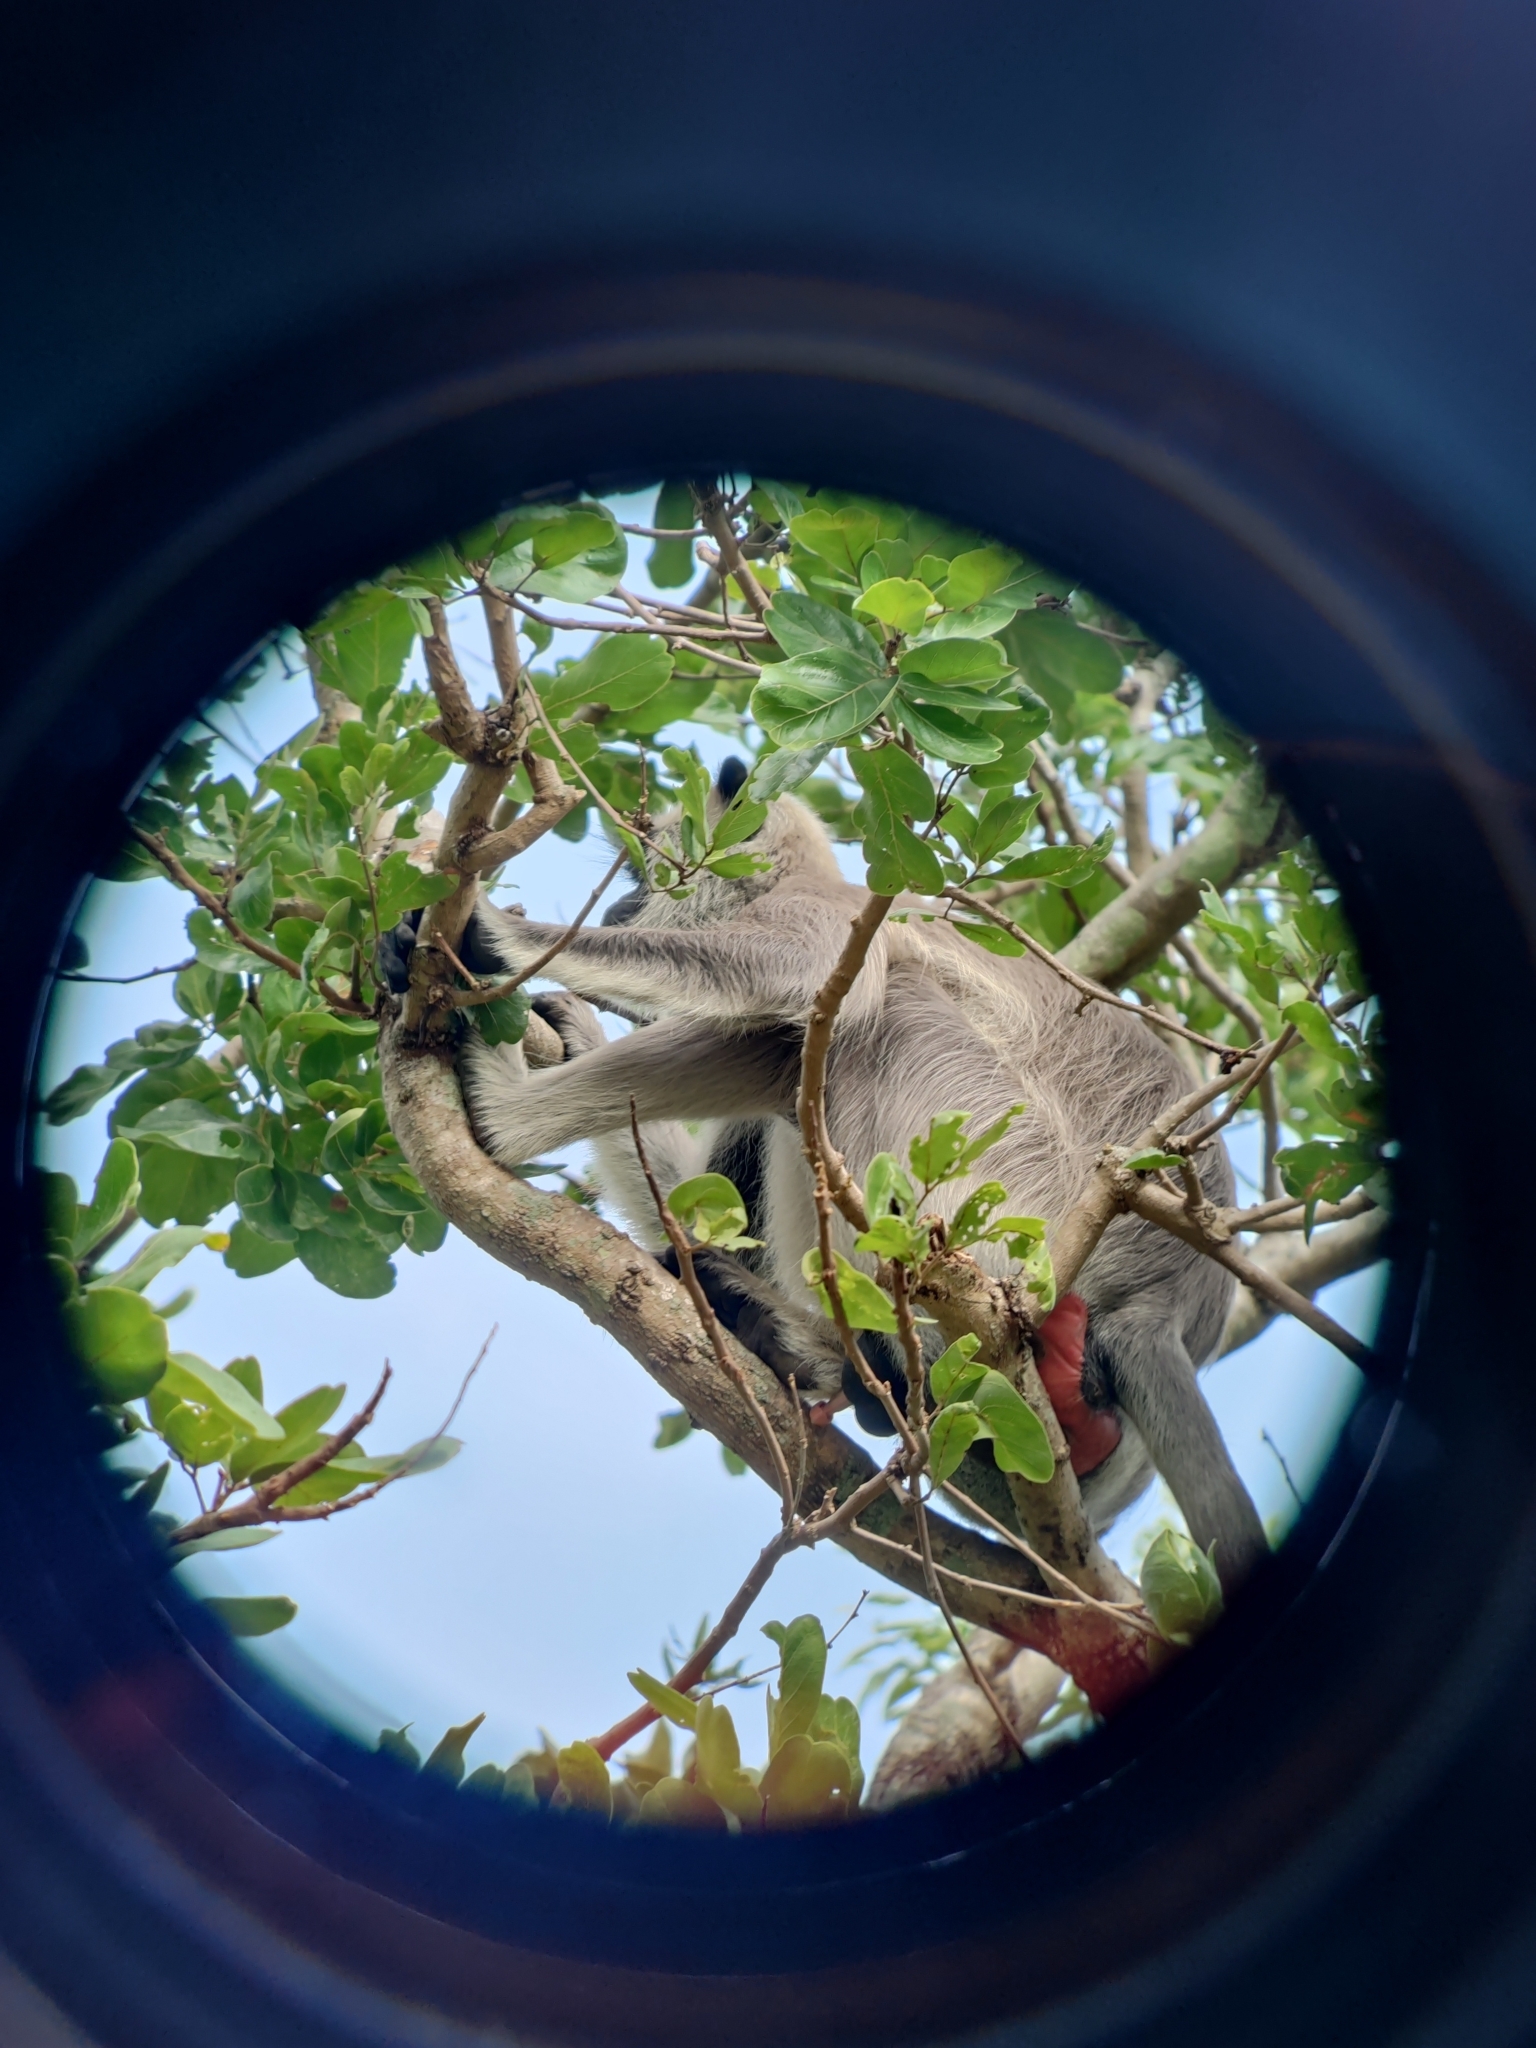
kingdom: Animalia
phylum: Chordata
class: Mammalia
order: Primates
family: Cercopithecidae
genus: Semnopithecus
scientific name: Semnopithecus priam
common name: Tufted gray langur
